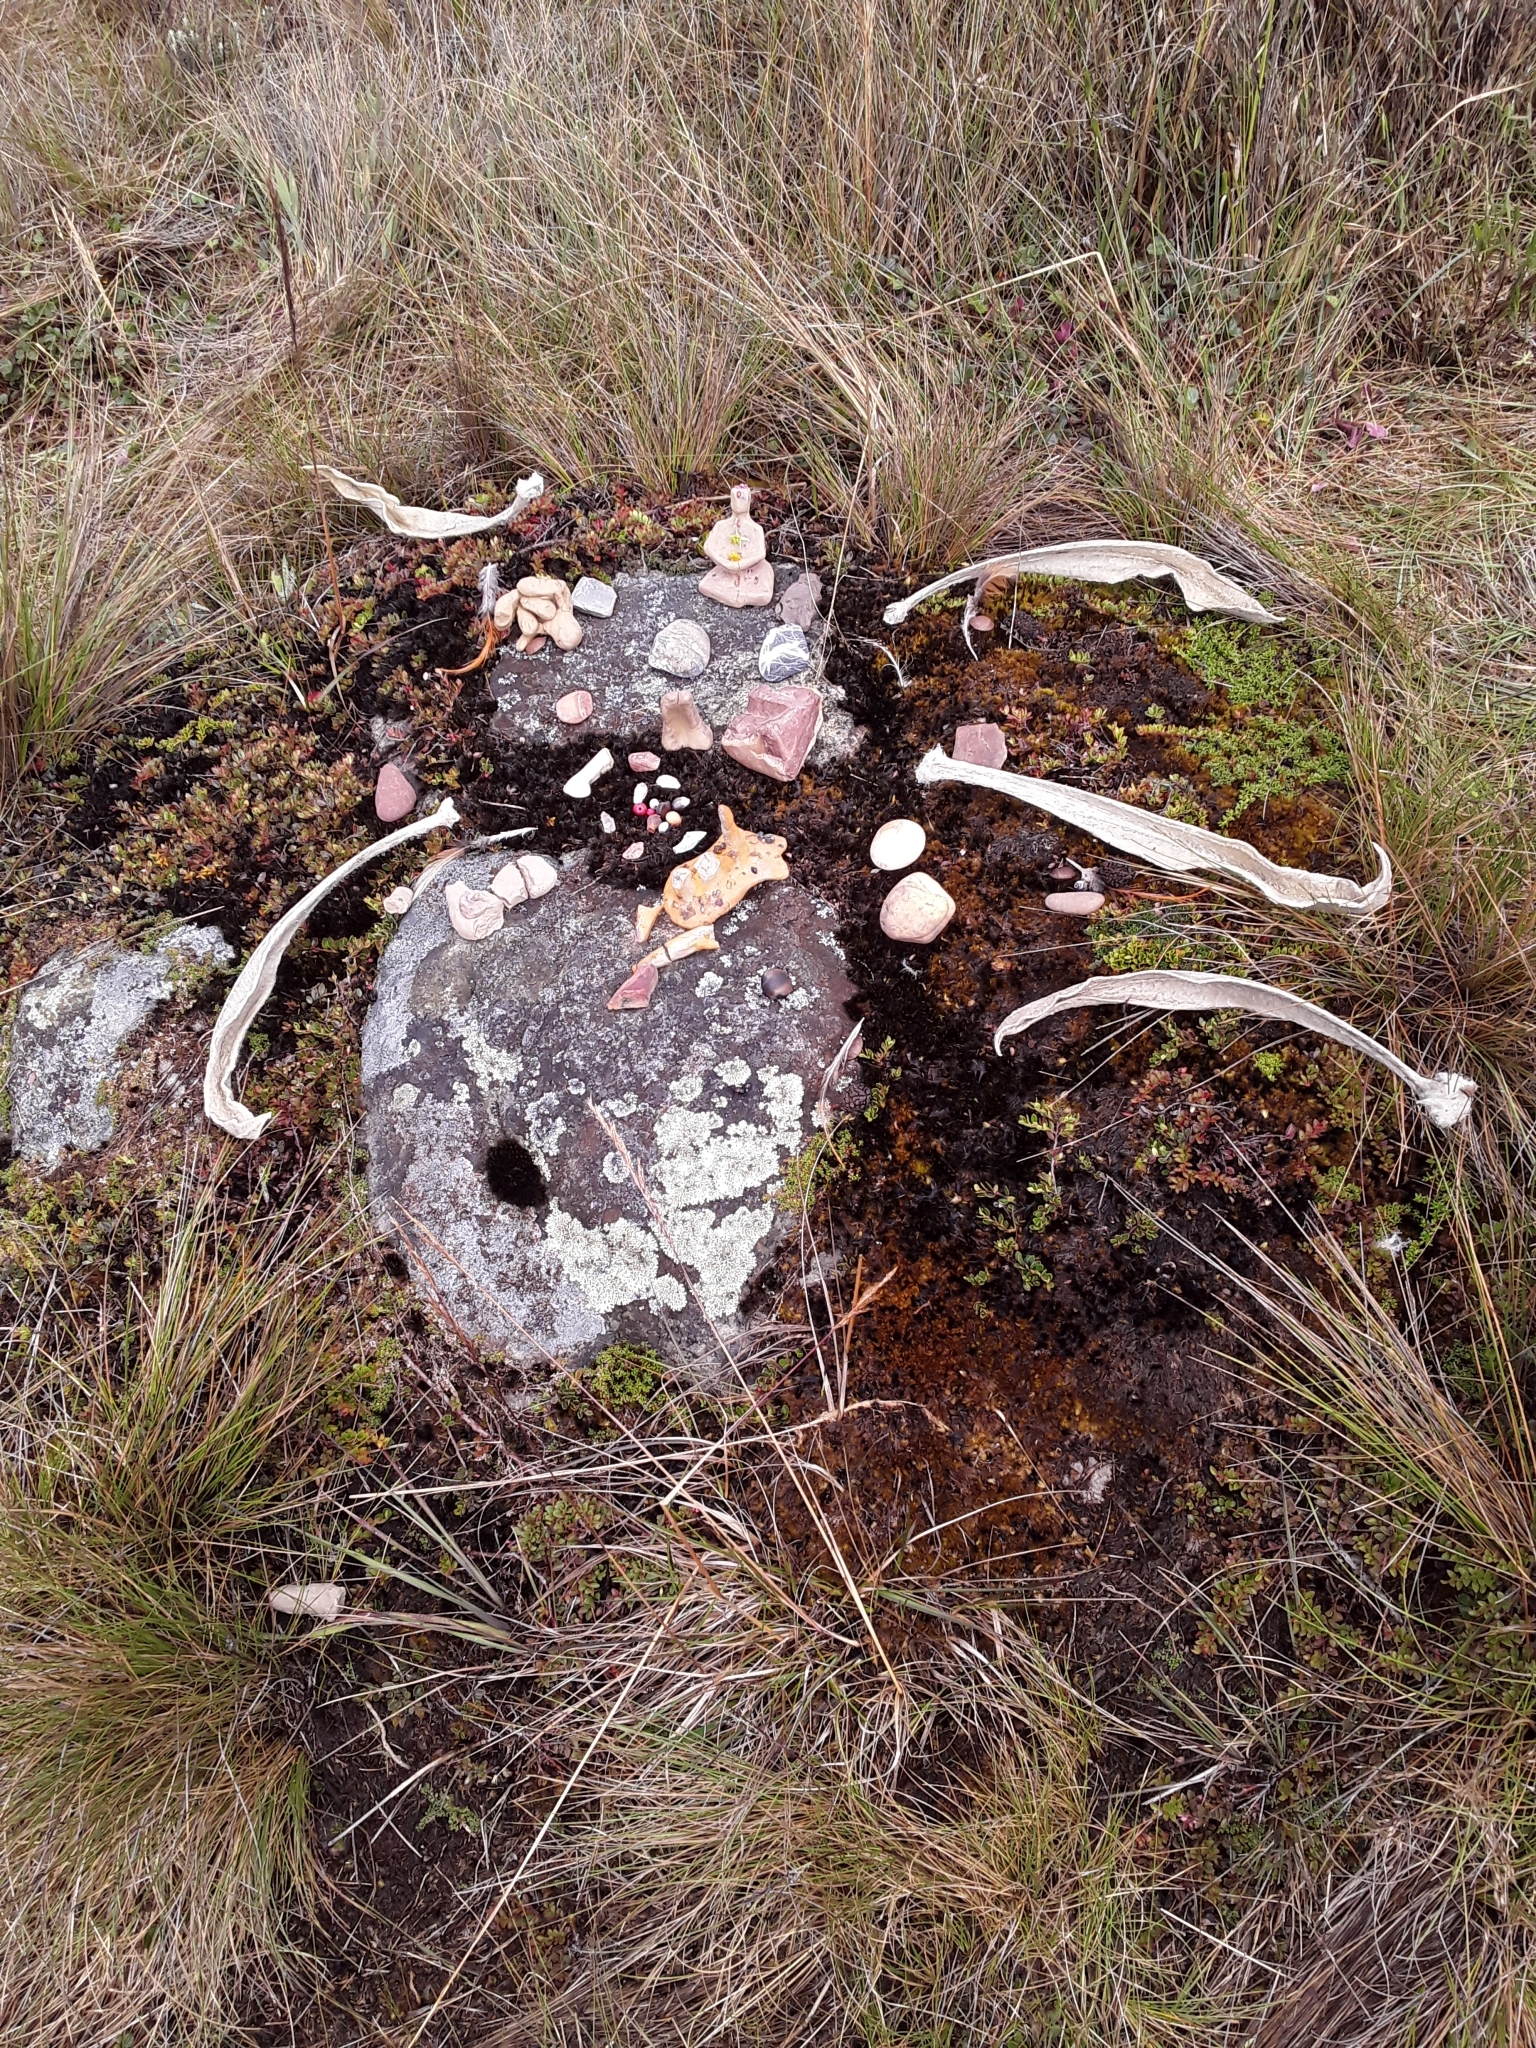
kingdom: Animalia
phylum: Arthropoda
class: Insecta
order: Coleoptera
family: Melyridae
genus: Astylus
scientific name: Astylus
